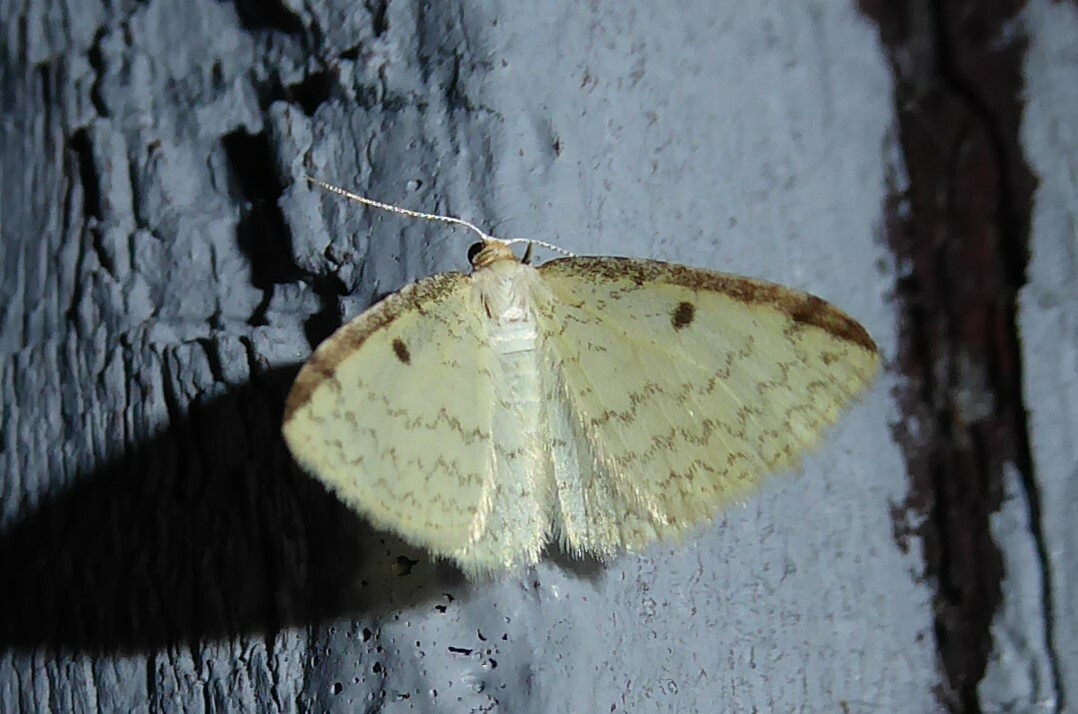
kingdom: Animalia
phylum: Arthropoda
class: Insecta
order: Lepidoptera
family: Geometridae
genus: Epiphryne
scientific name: Epiphryne undosata
